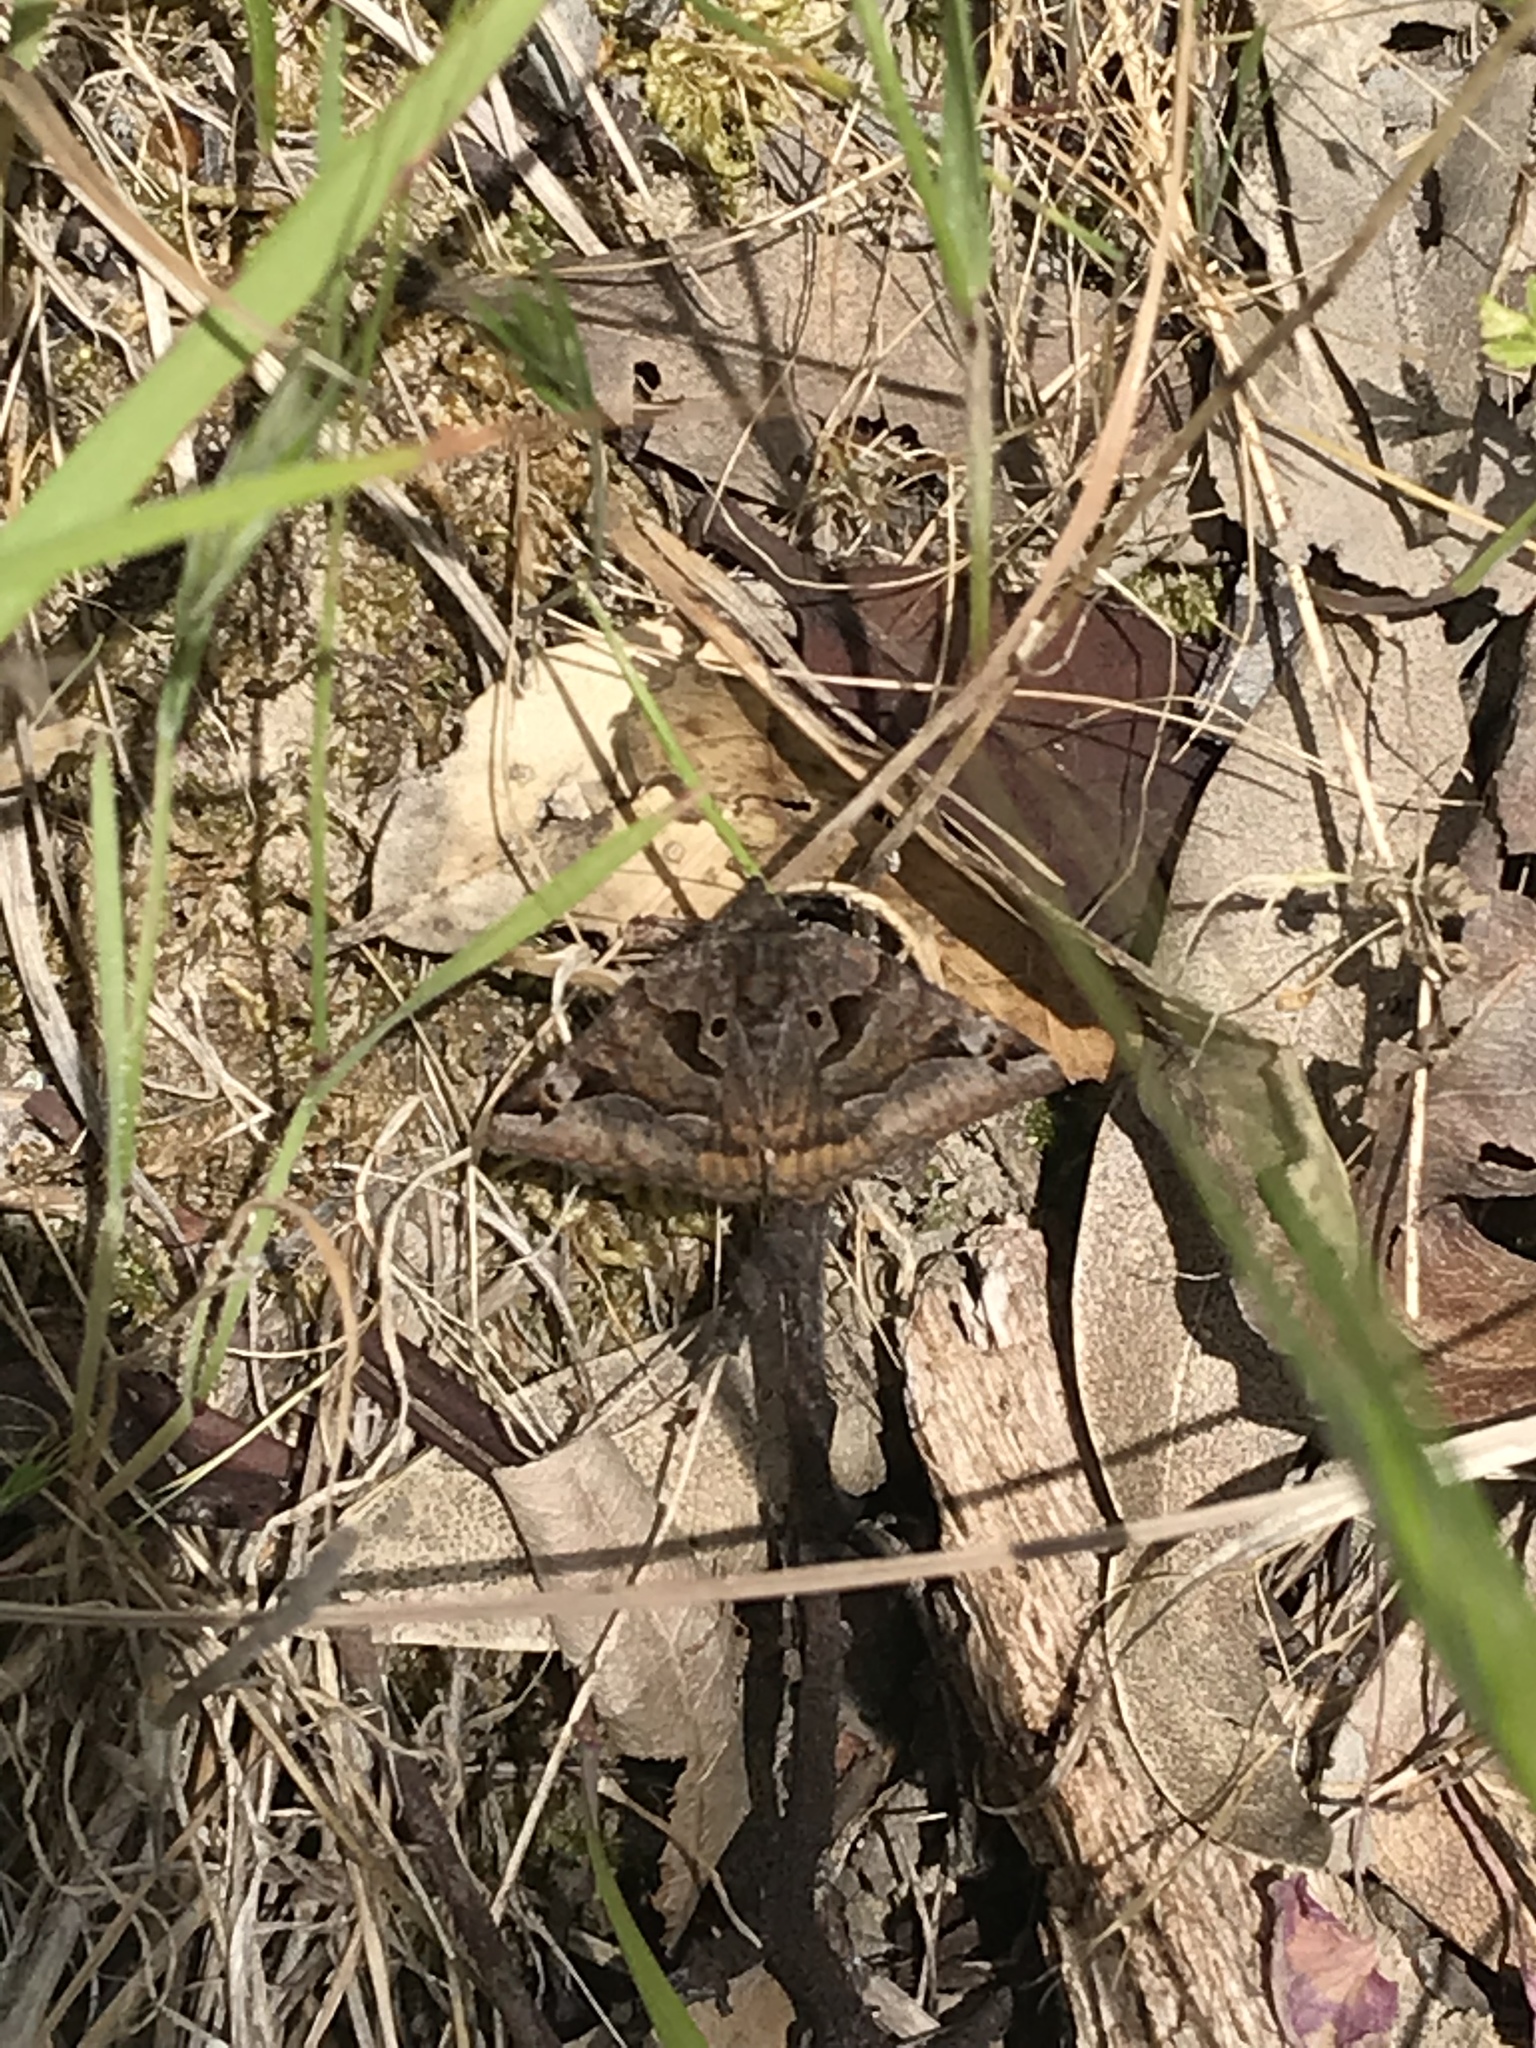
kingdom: Animalia
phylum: Arthropoda
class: Insecta
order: Lepidoptera
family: Erebidae
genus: Euclidia
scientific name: Euclidia ardita
